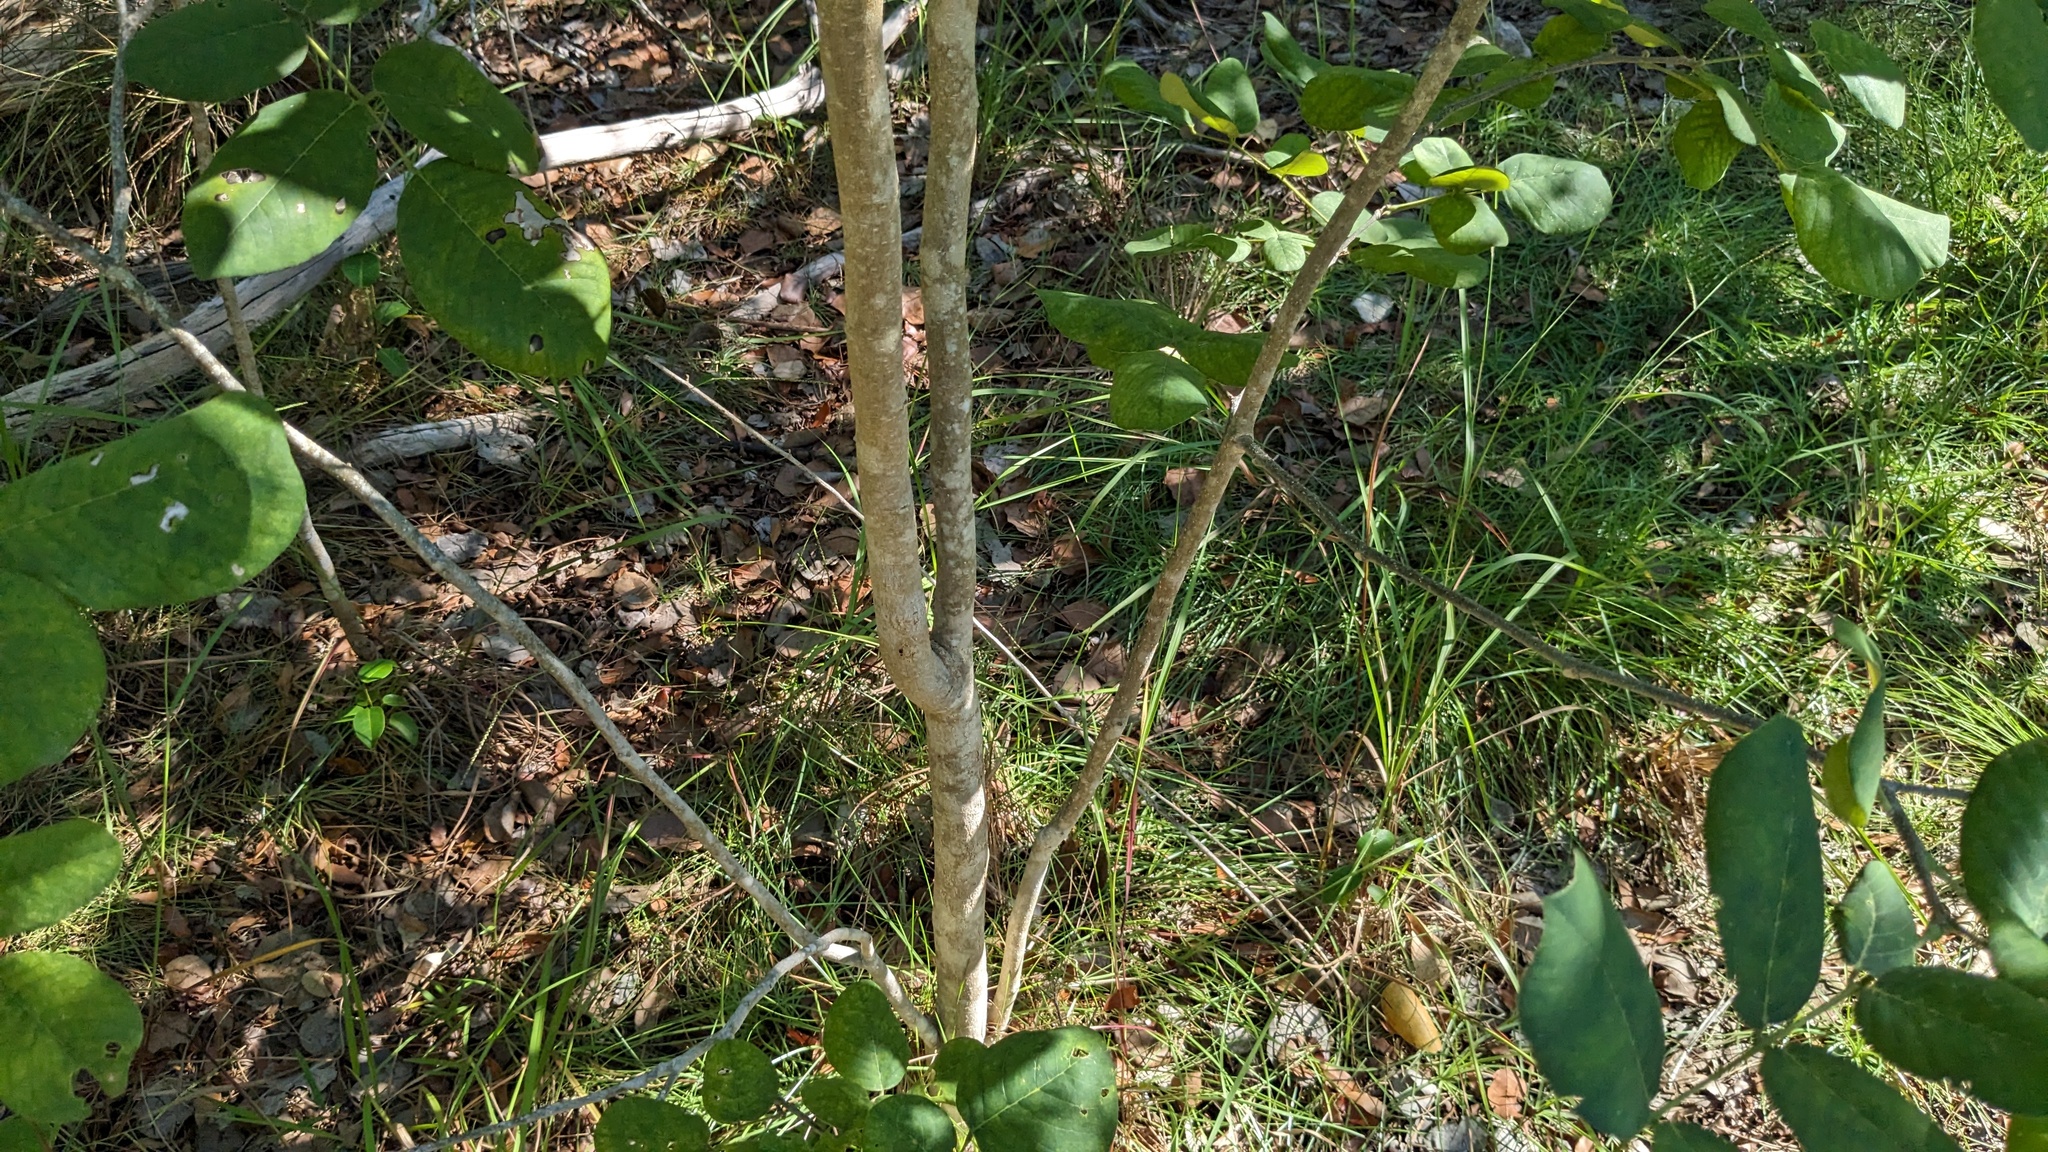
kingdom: Plantae
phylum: Tracheophyta
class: Magnoliopsida
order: Fabales
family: Fabaceae
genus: Piscidia
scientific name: Piscidia piscipula
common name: Florida fishpoison tree
